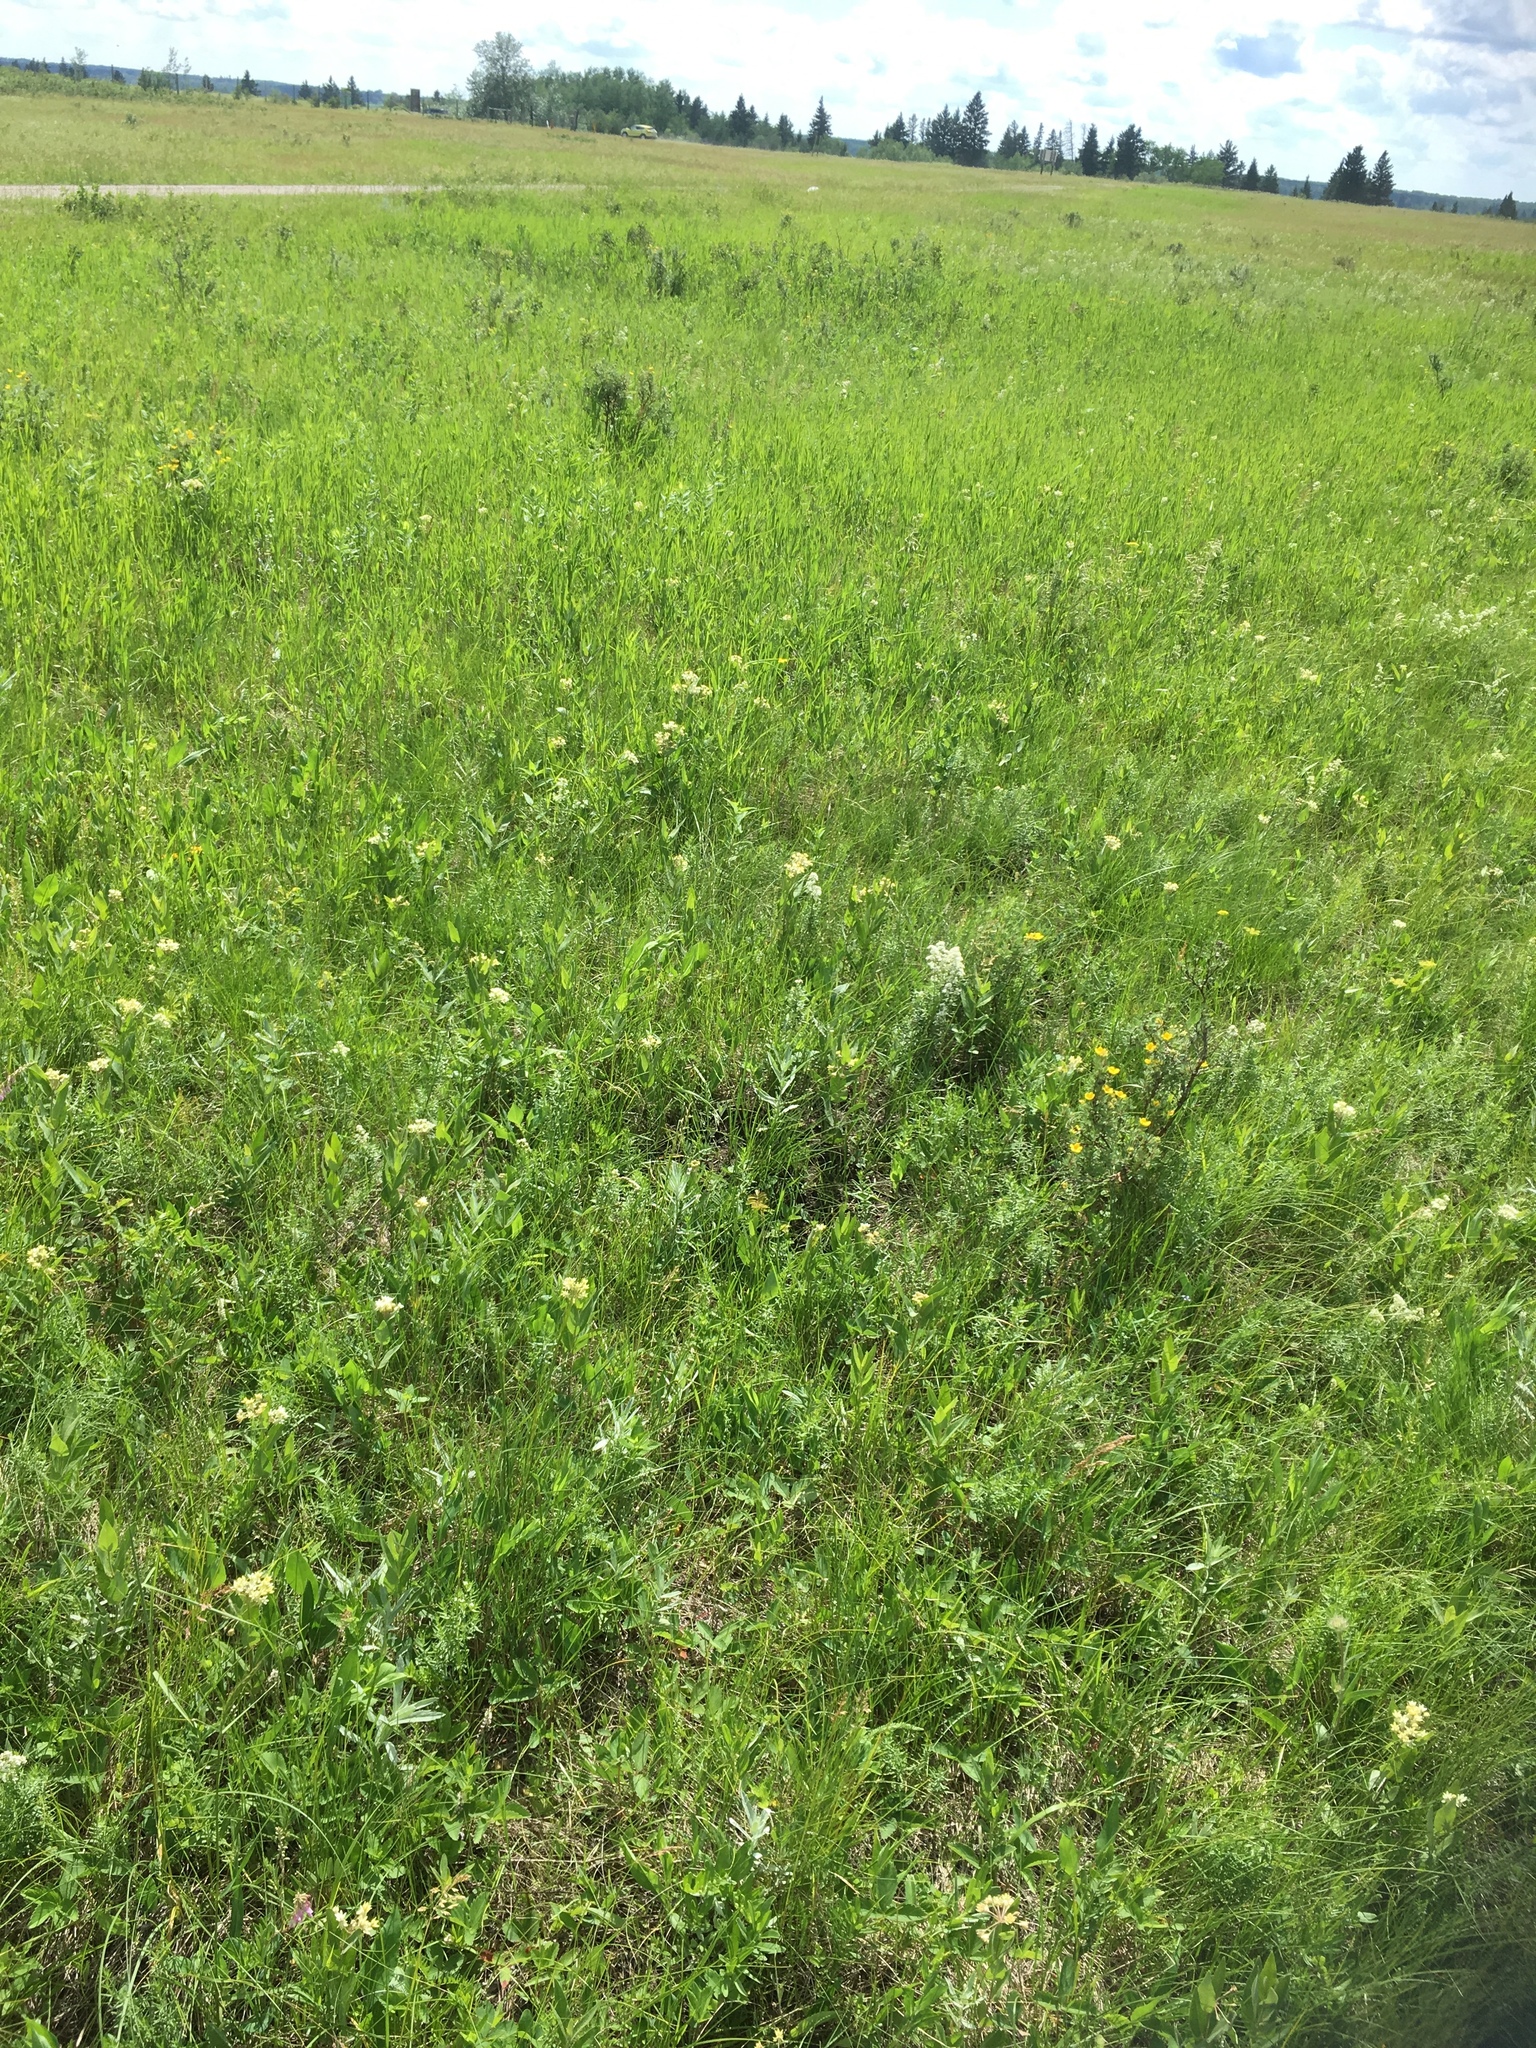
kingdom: Plantae
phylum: Tracheophyta
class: Magnoliopsida
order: Gentianales
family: Apocynaceae
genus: Asclepias
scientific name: Asclepias ovalifolia
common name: Dwarf milkweed
